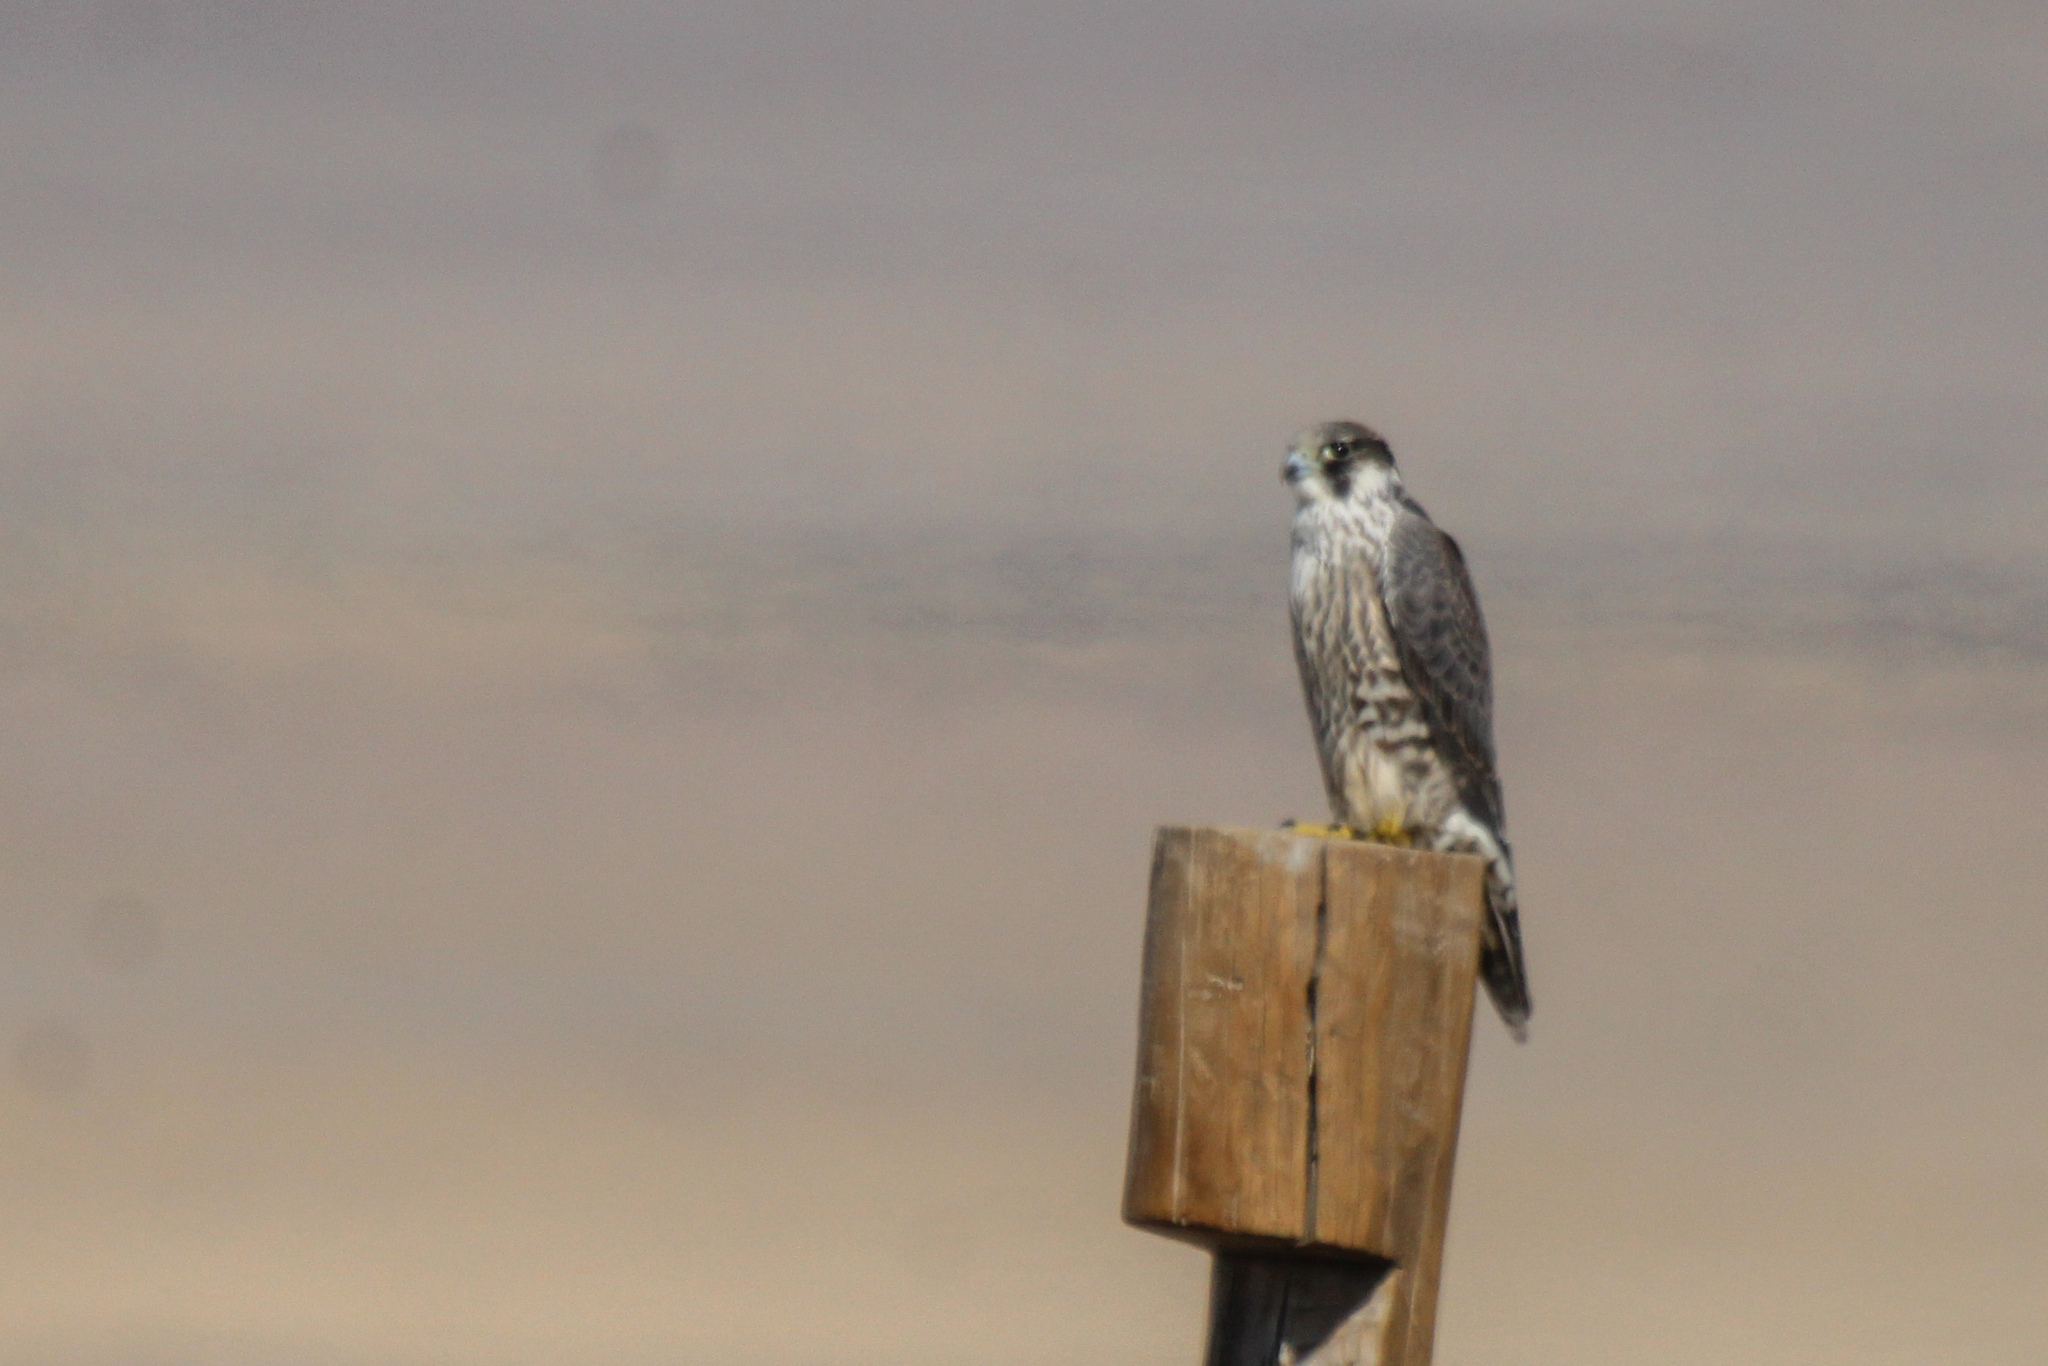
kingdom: Animalia
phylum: Chordata
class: Aves
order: Falconiformes
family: Falconidae
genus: Falco
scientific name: Falco peregrinus
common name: Peregrine falcon
